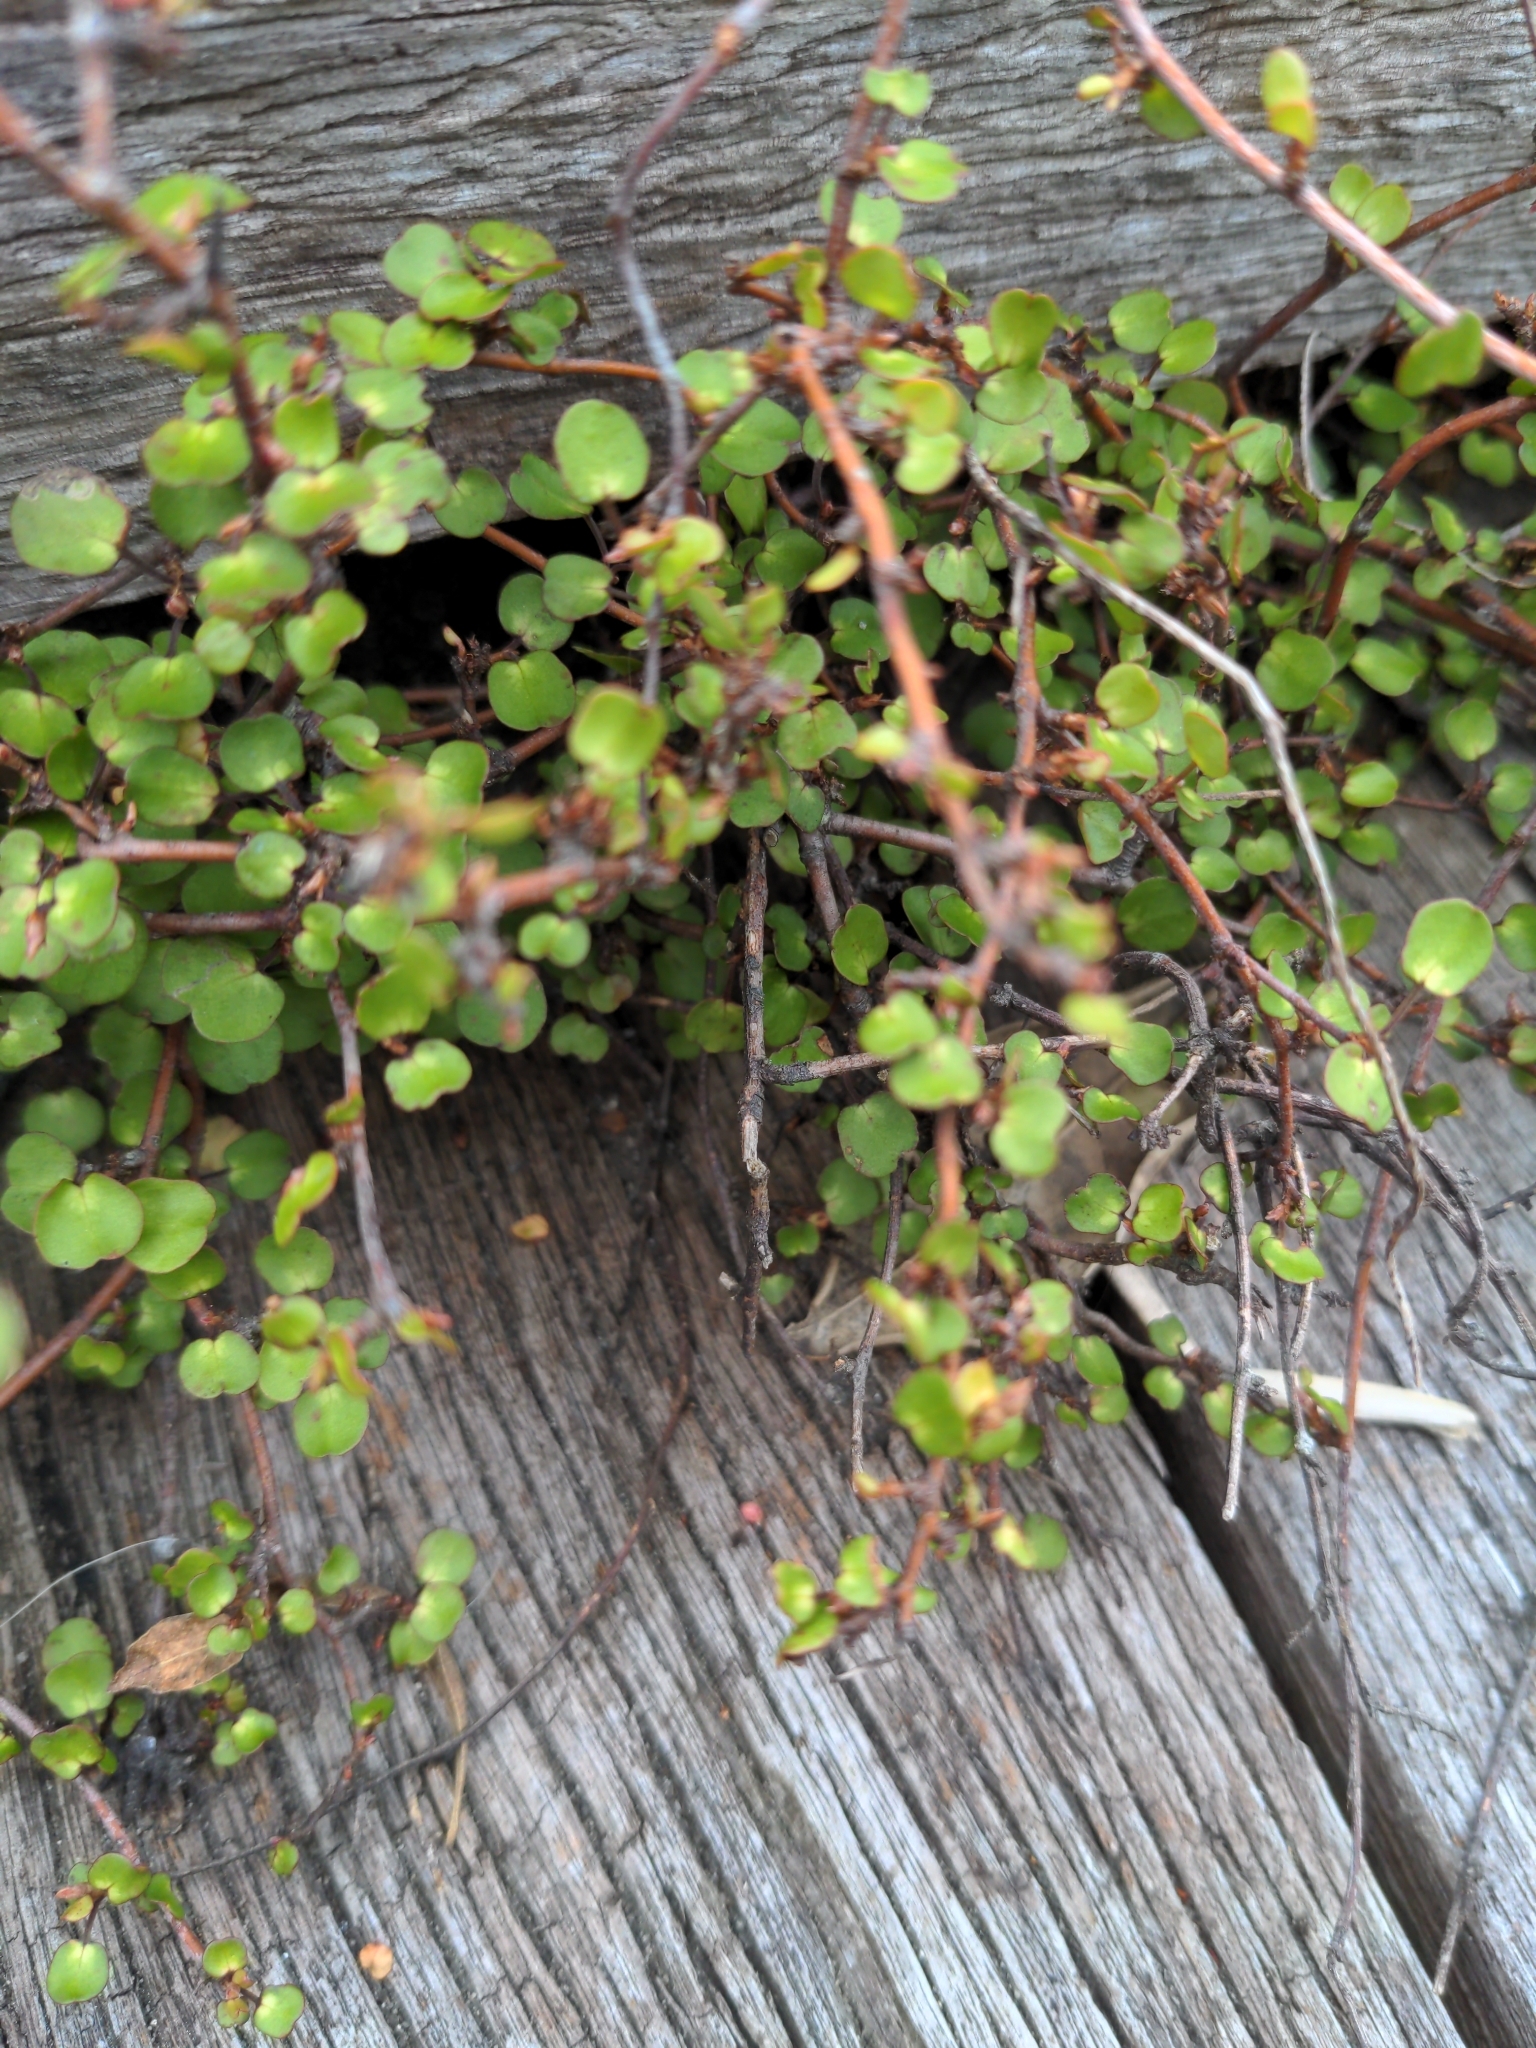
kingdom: Plantae
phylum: Tracheophyta
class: Magnoliopsida
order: Caryophyllales
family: Polygonaceae
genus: Muehlenbeckia
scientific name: Muehlenbeckia complexa
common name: Wireplant
